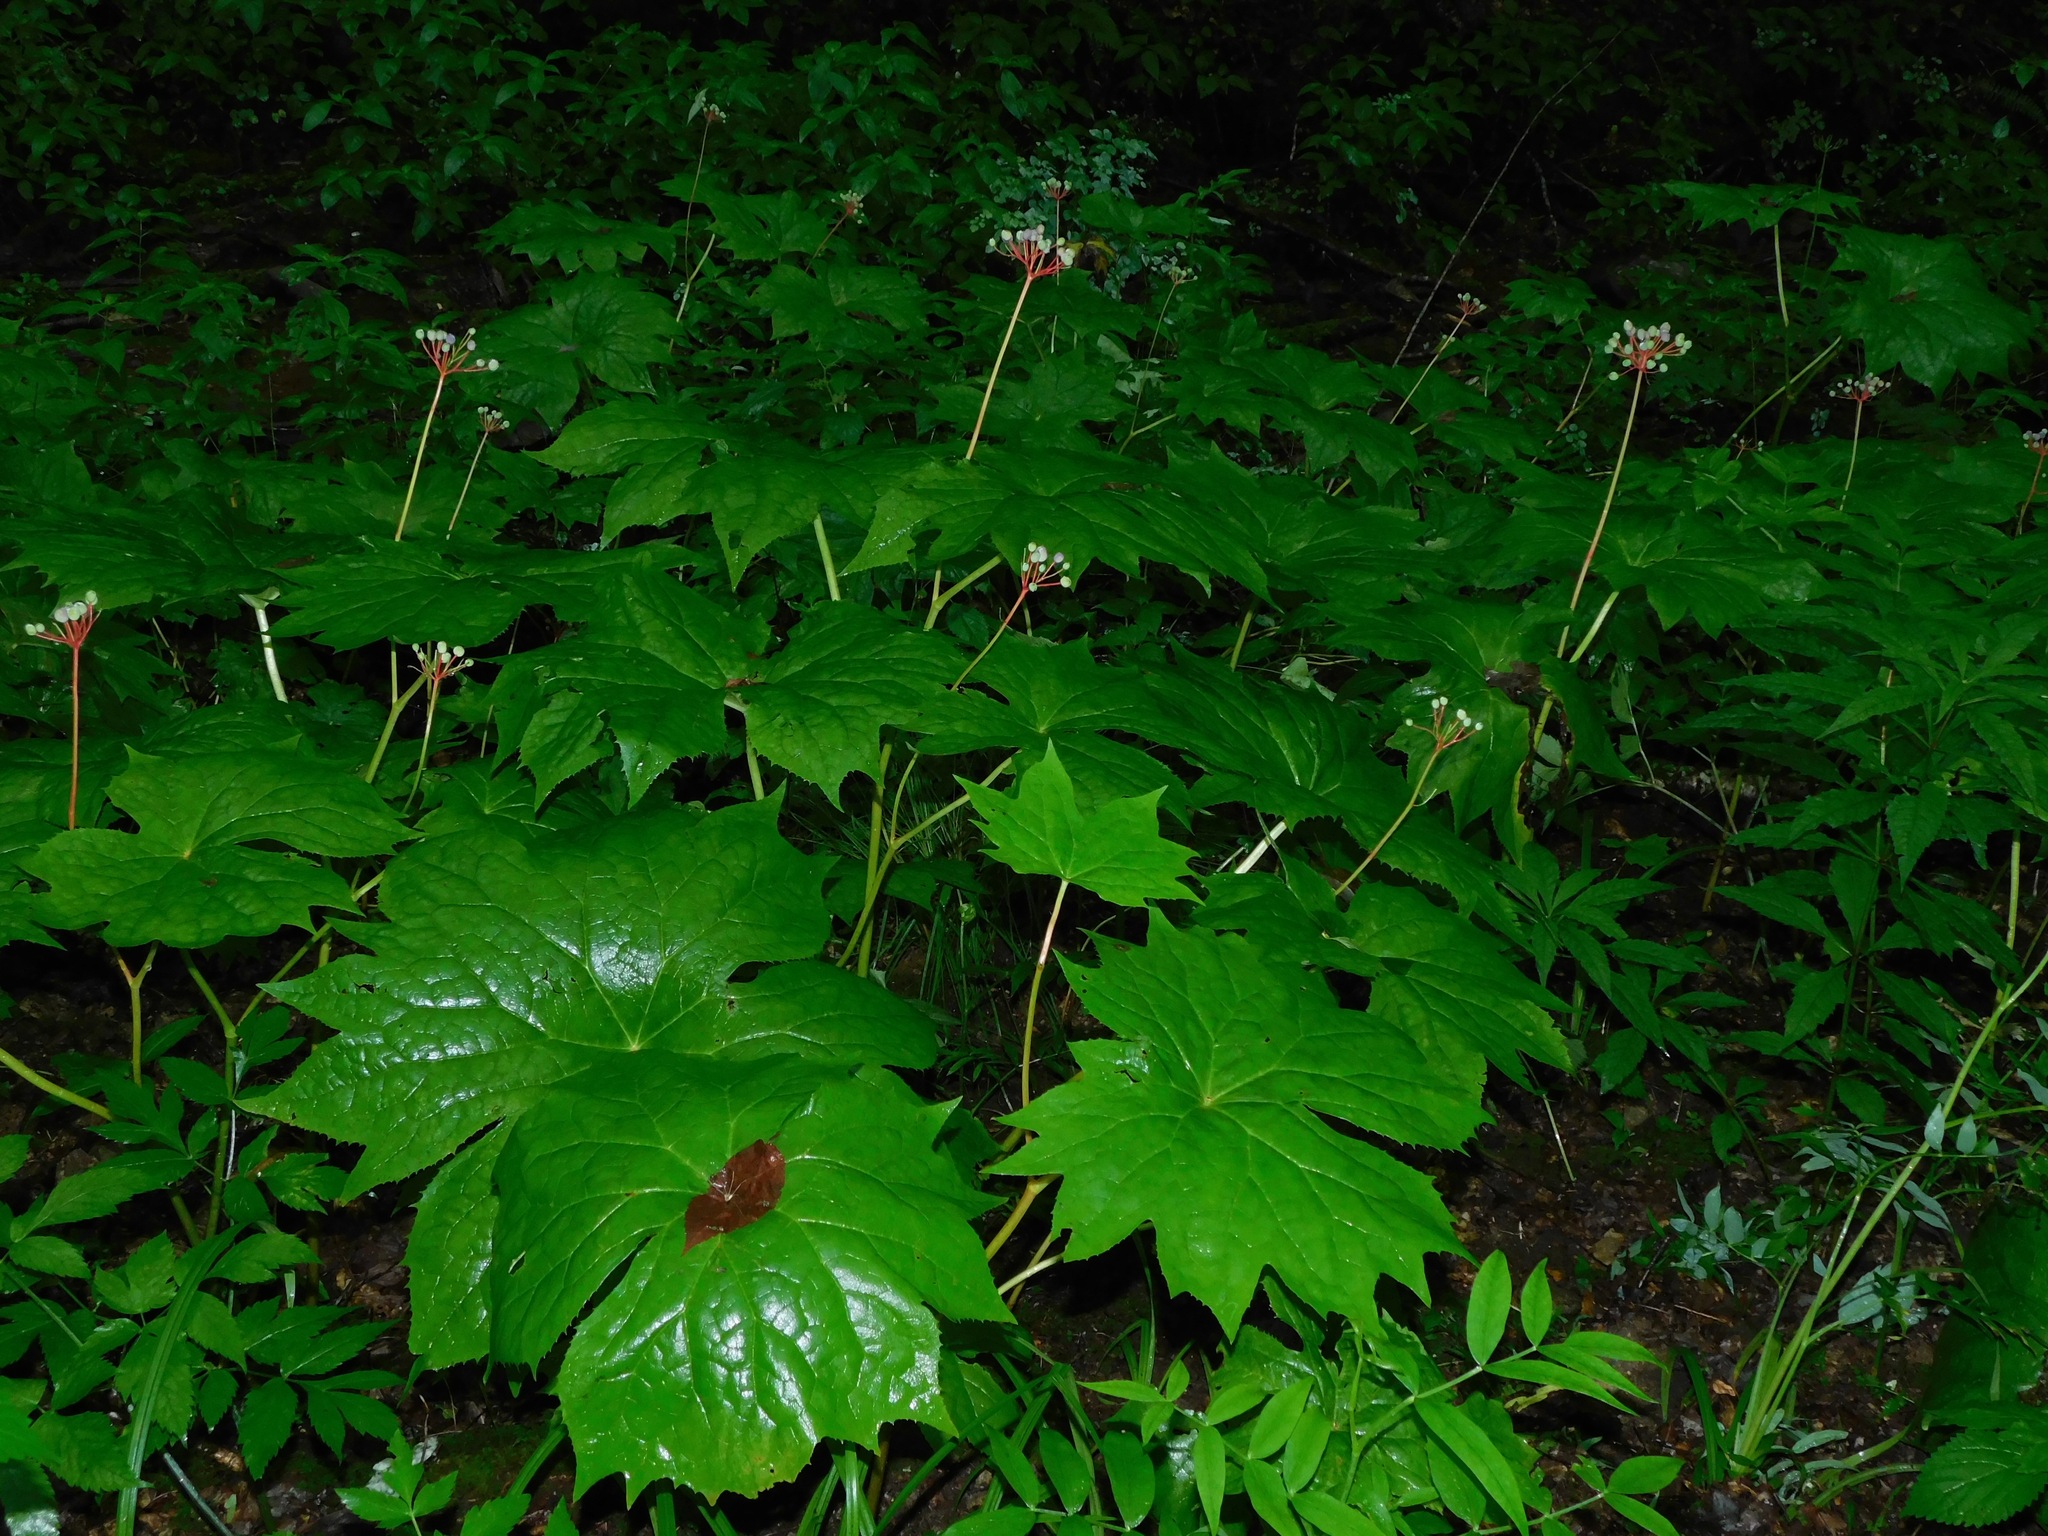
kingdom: Plantae
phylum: Tracheophyta
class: Magnoliopsida
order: Ranunculales
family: Berberidaceae
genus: Diphylleia
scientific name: Diphylleia cymosa
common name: Umbrella-leaf
